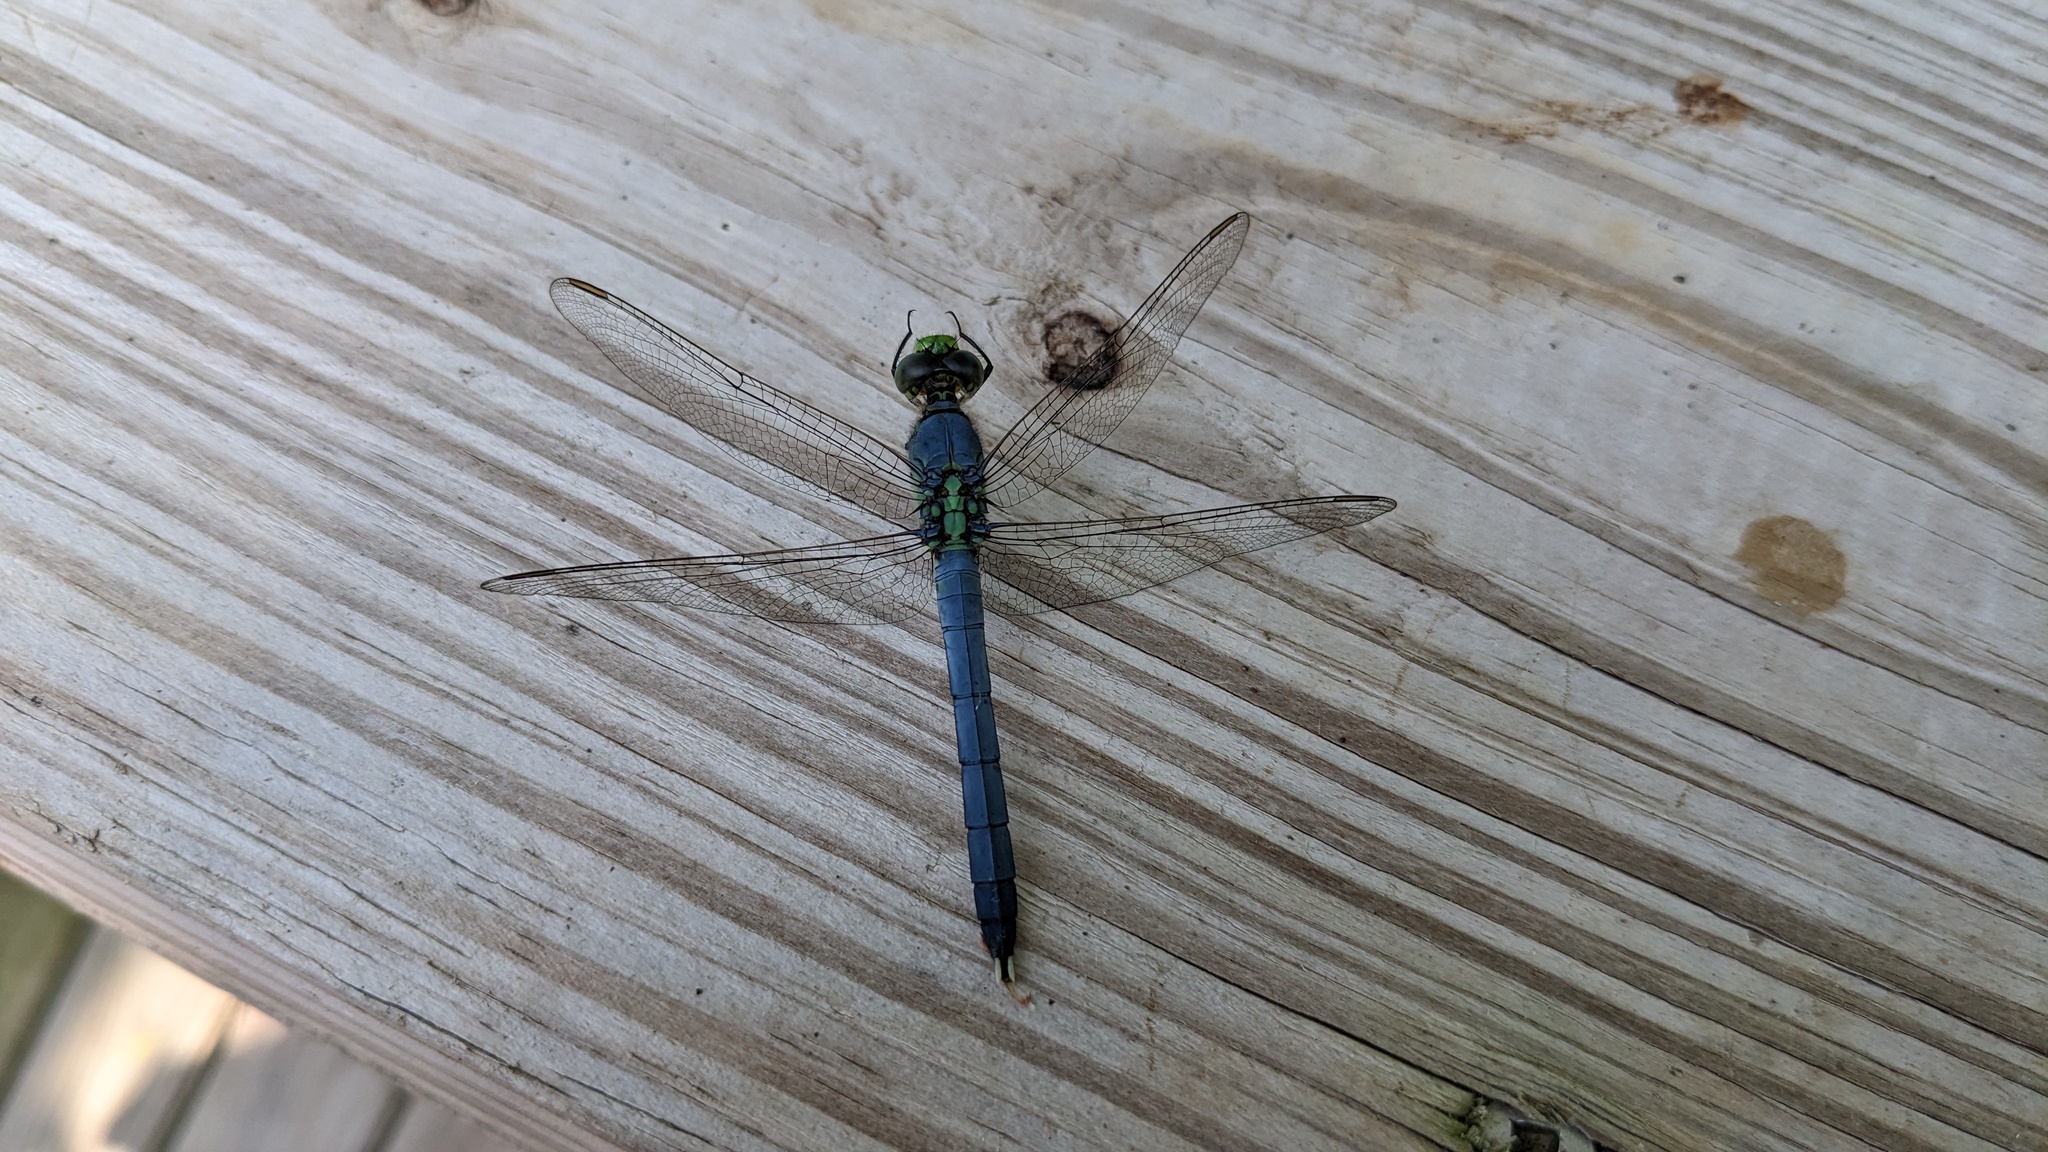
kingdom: Animalia
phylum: Arthropoda
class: Insecta
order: Odonata
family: Libellulidae
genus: Erythemis
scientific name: Erythemis simplicicollis
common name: Eastern pondhawk
